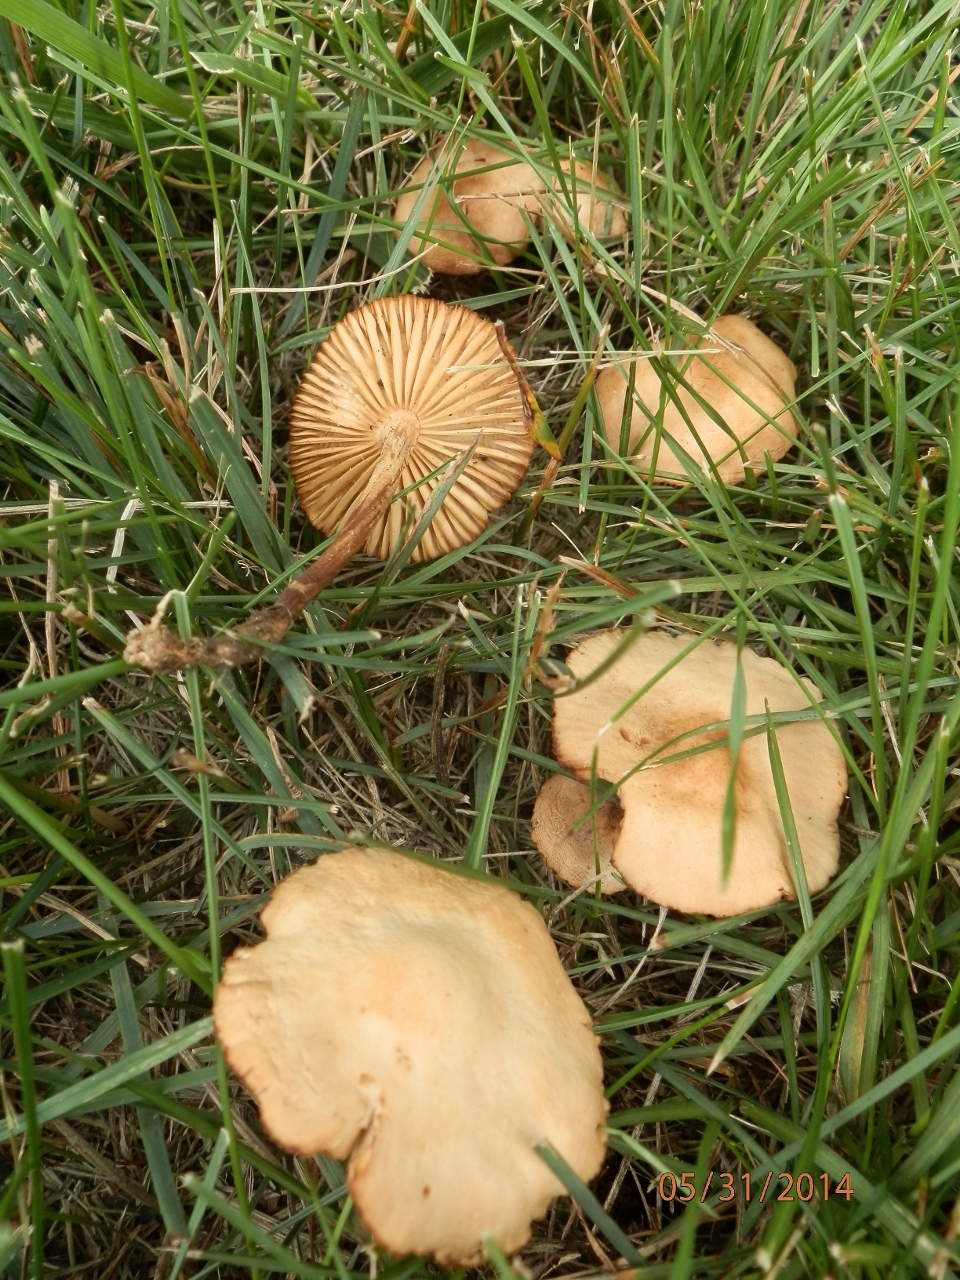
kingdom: Fungi
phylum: Basidiomycota
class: Agaricomycetes
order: Agaricales
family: Marasmiaceae
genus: Marasmius
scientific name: Marasmius oreades
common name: Fairy ring champignon
